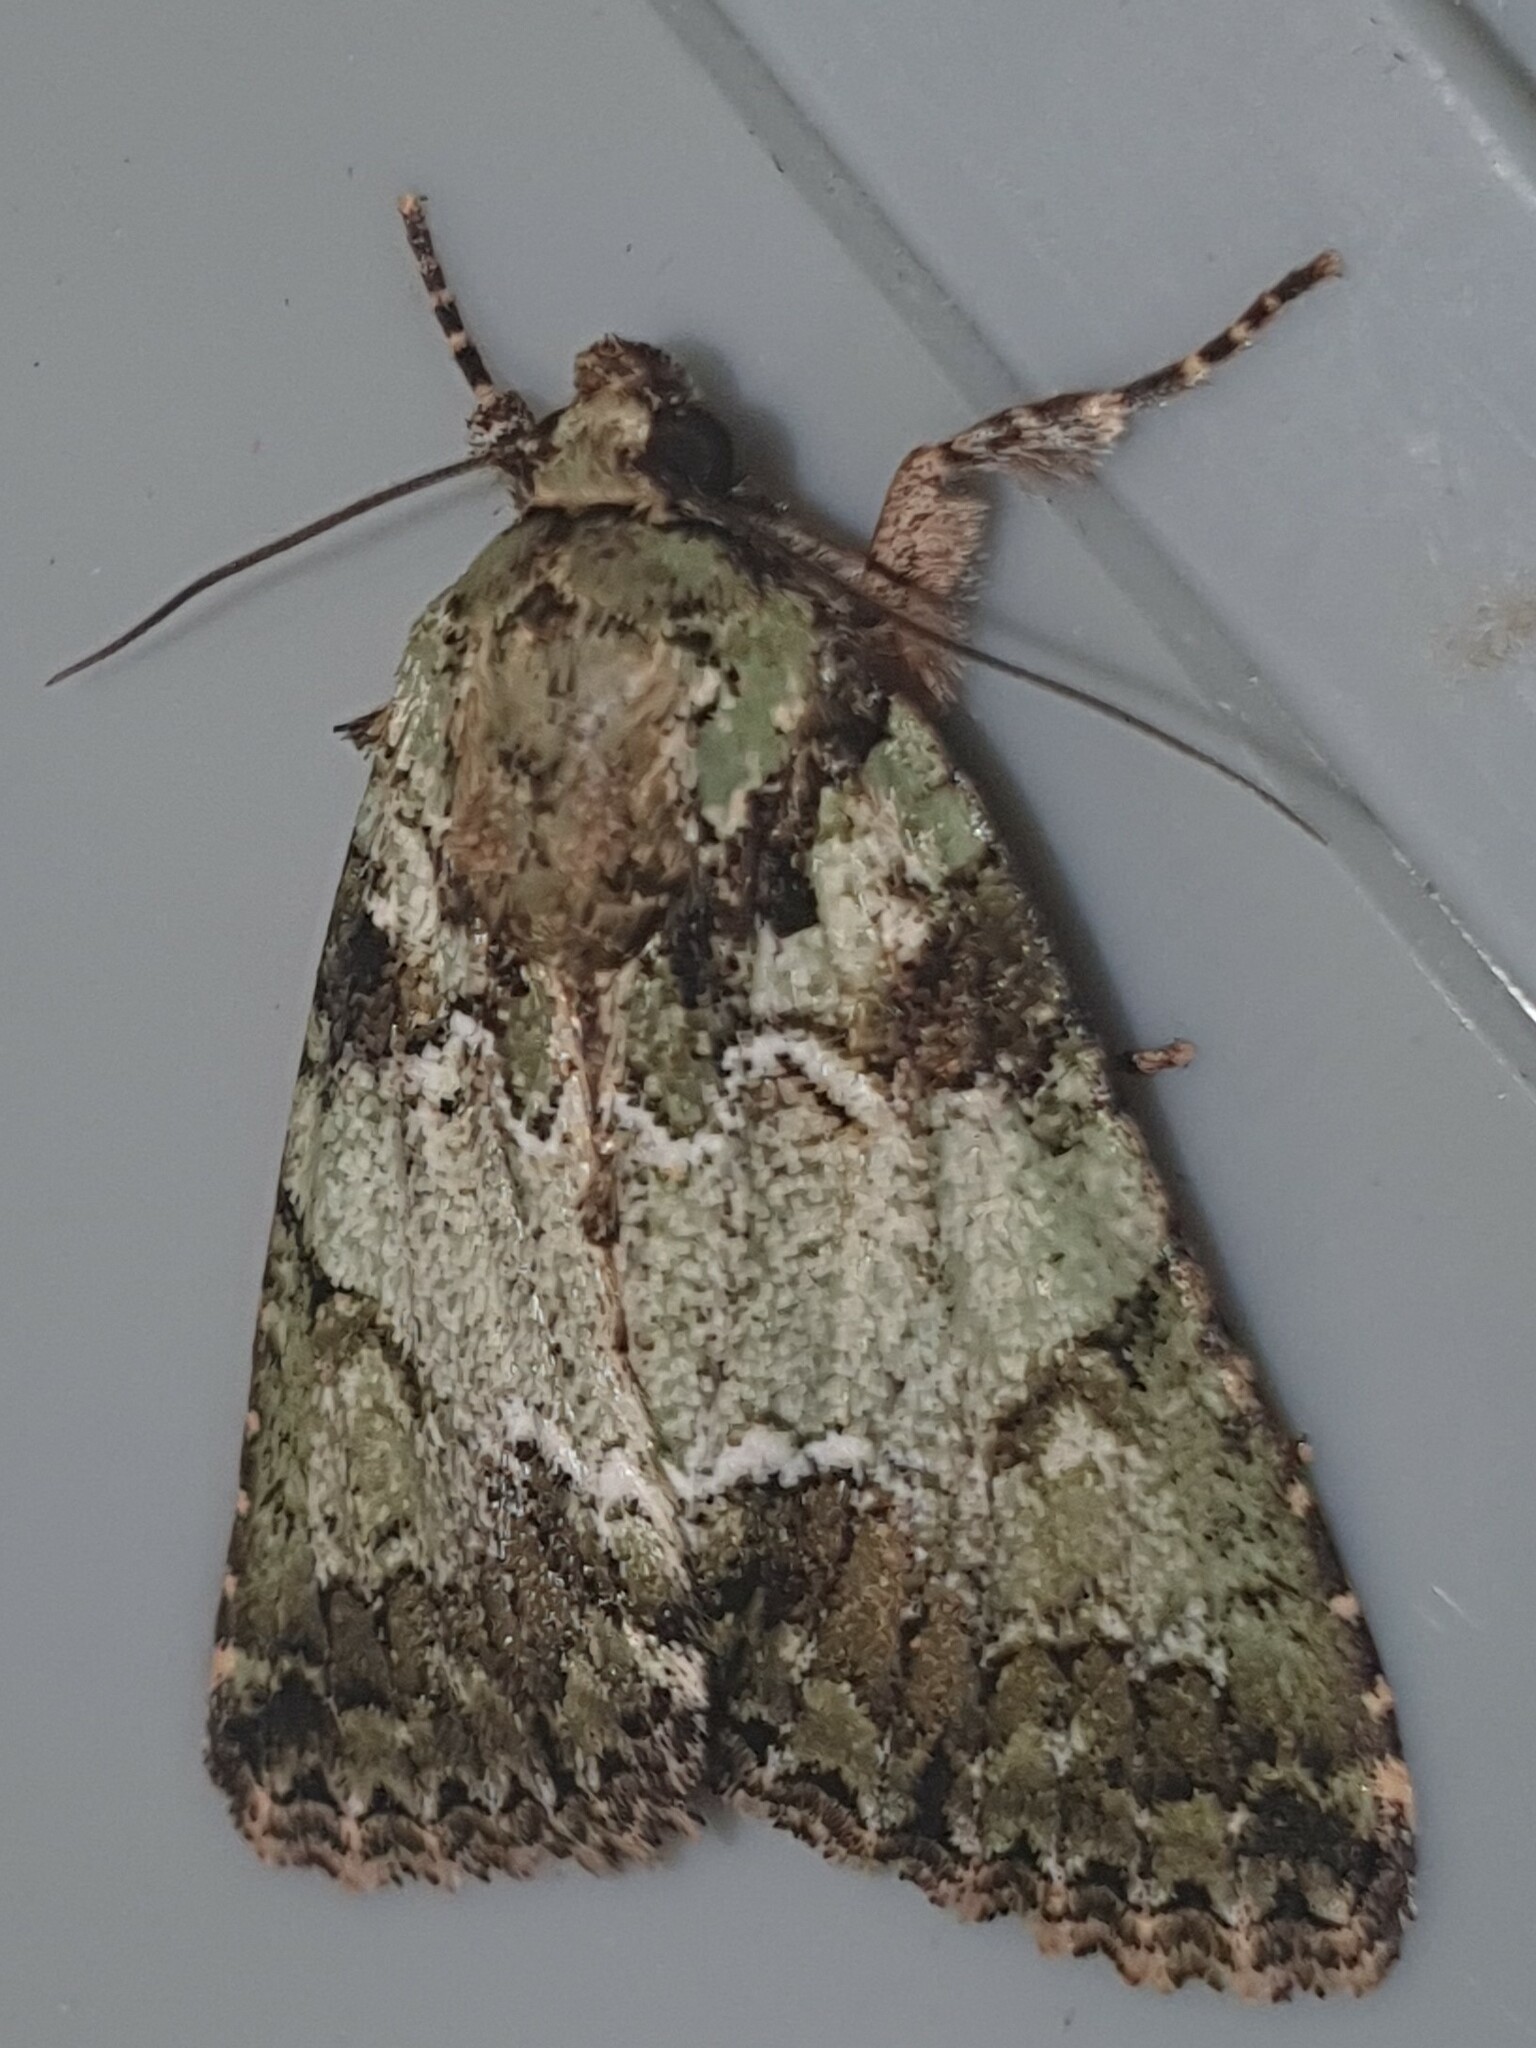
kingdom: Animalia
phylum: Arthropoda
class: Insecta
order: Lepidoptera
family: Noctuidae
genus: Polyphaenis
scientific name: Polyphaenis sericata
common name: Guernsey underwing
